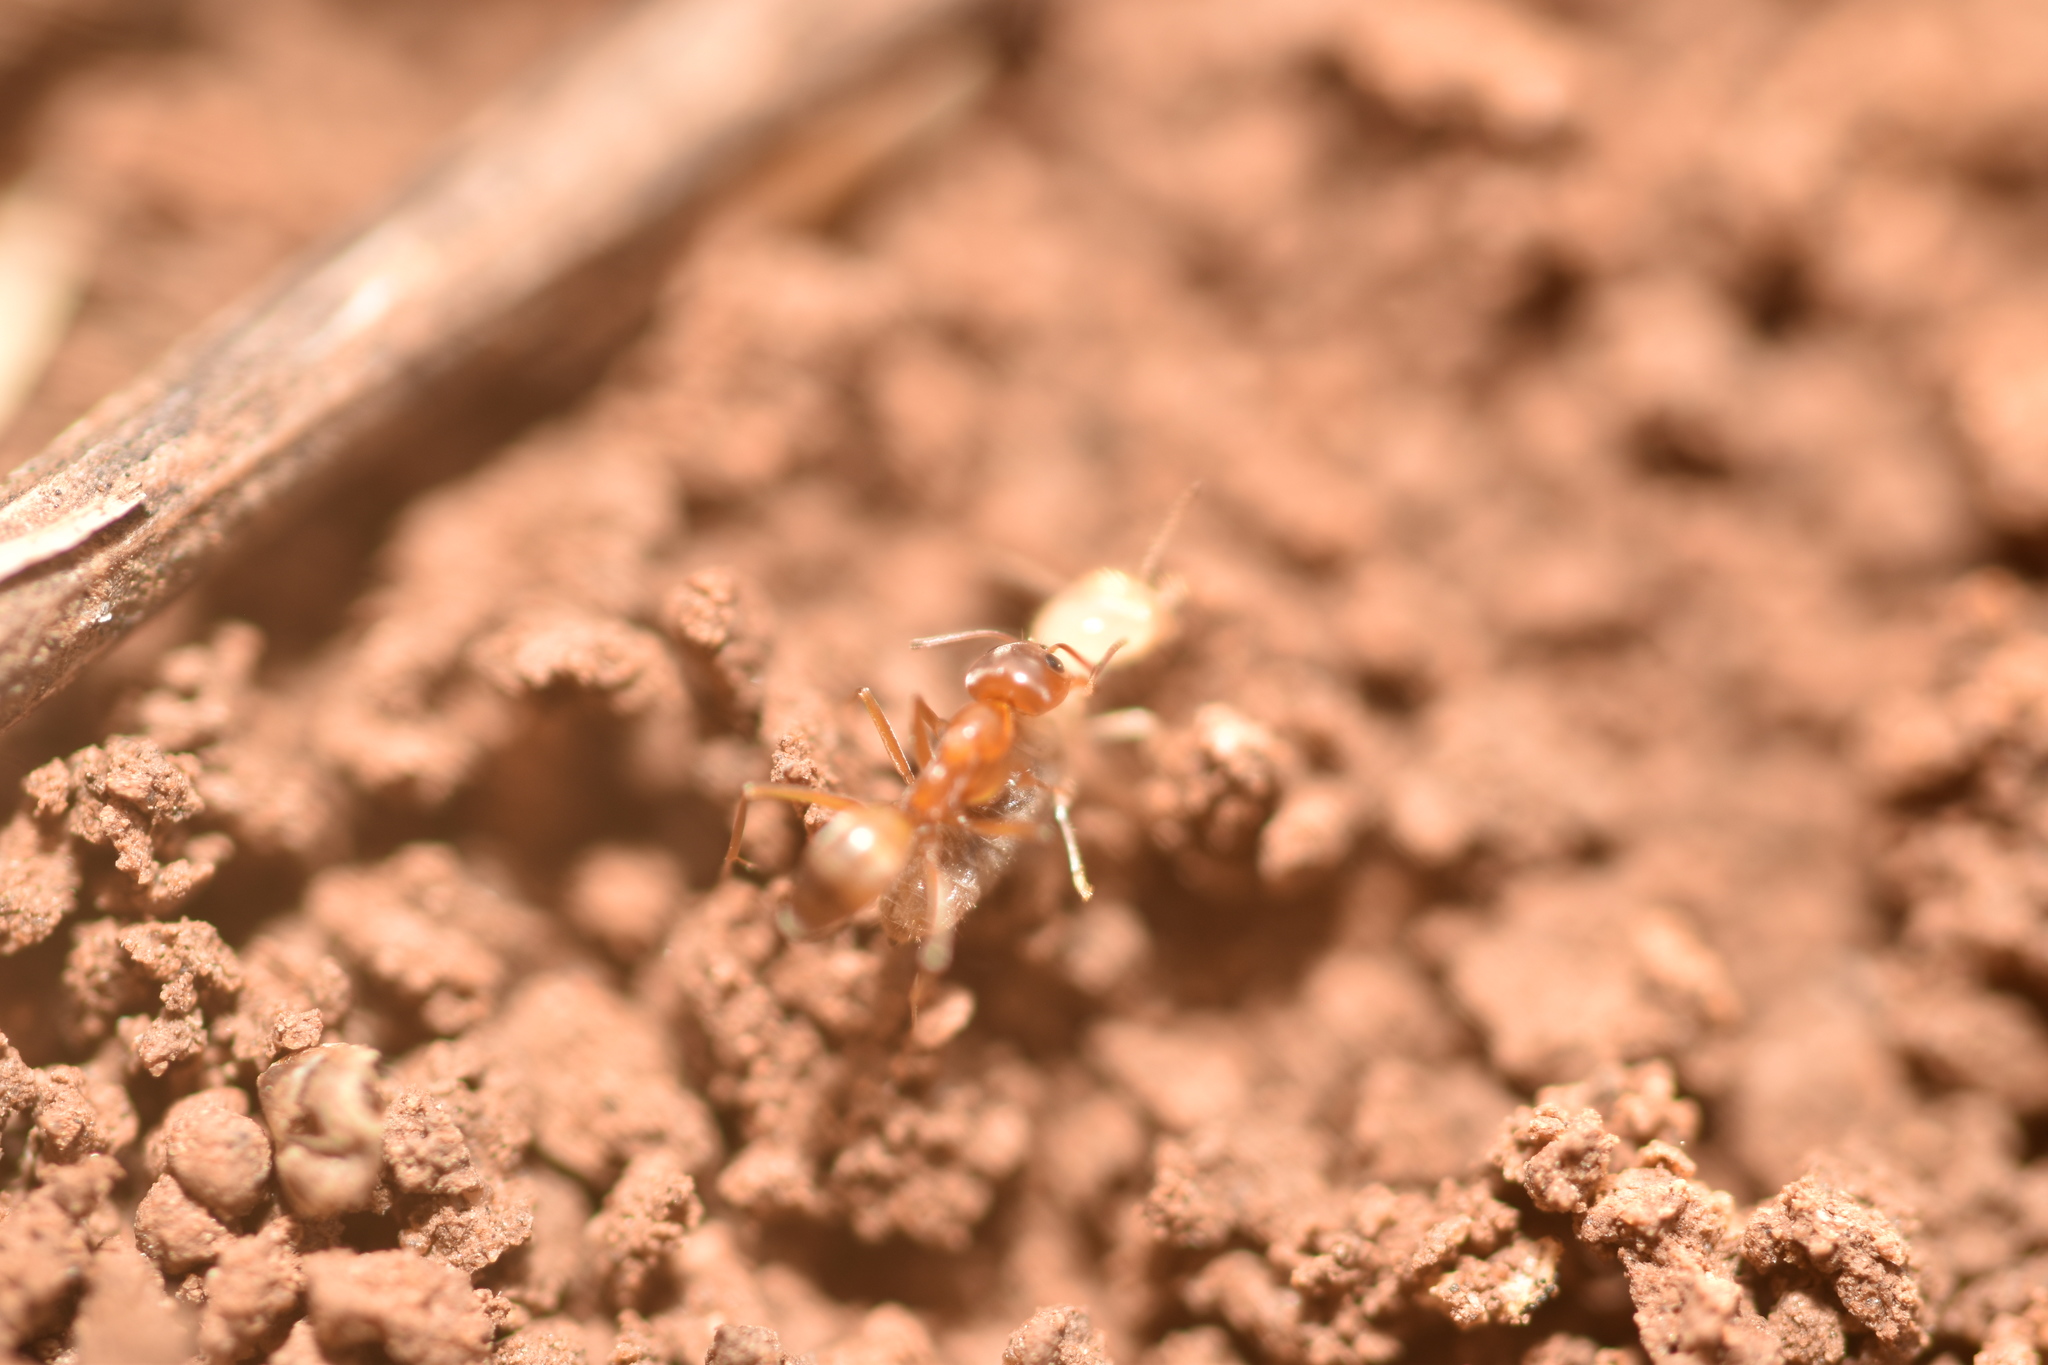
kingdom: Animalia
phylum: Arthropoda
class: Insecta
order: Hymenoptera
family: Formicidae
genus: Dorymyrmex
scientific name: Dorymyrmex flavus
